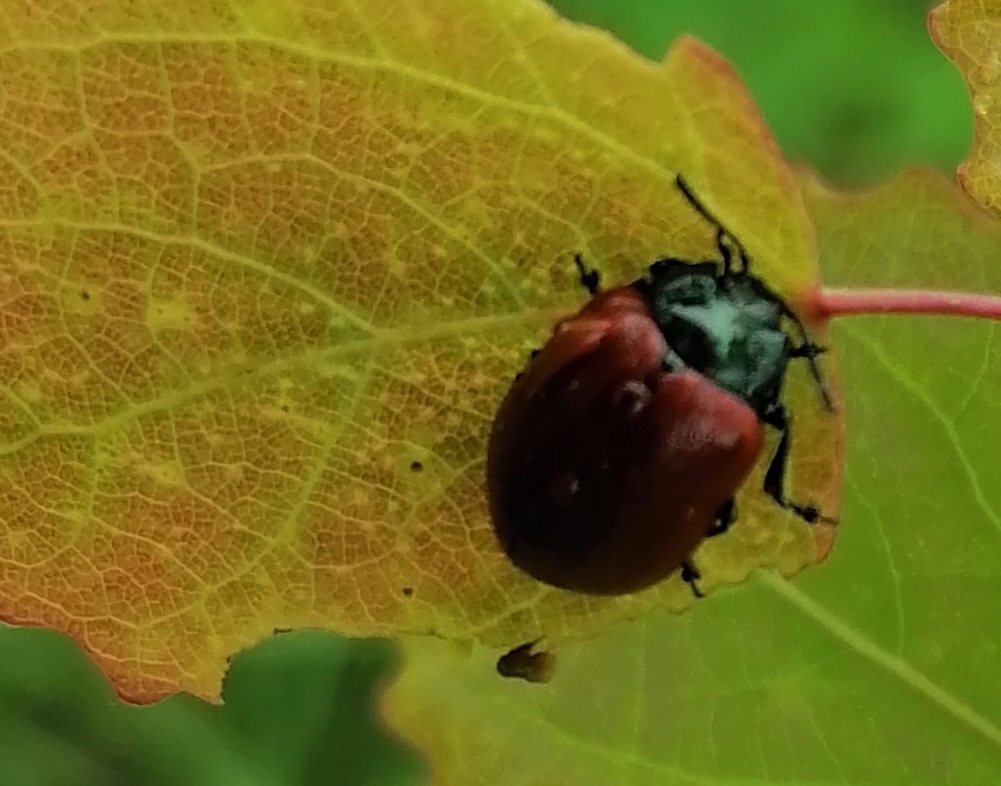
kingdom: Animalia
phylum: Arthropoda
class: Insecta
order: Coleoptera
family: Chrysomelidae
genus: Chrysomela
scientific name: Chrysomela populi
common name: Red poplar leaf beetle
